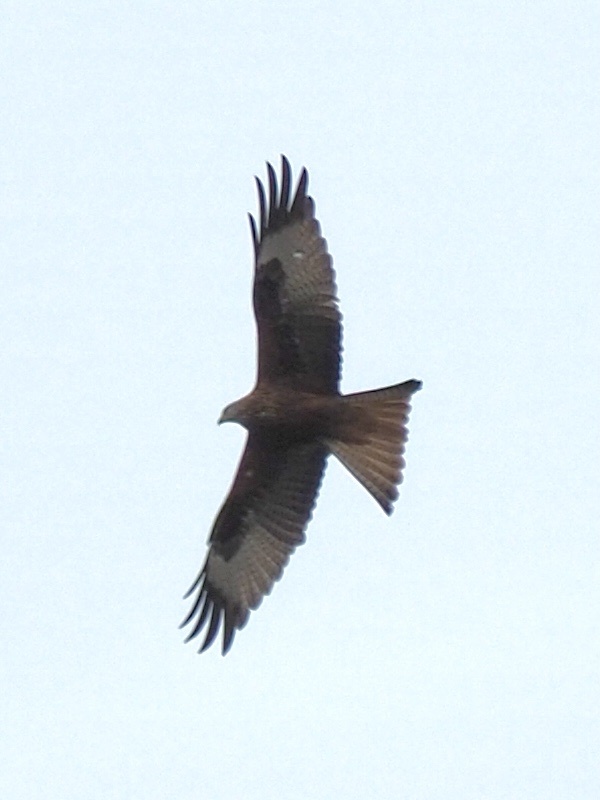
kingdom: Animalia
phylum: Chordata
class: Aves
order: Accipitriformes
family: Accipitridae
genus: Milvus
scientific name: Milvus milvus
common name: Red kite
